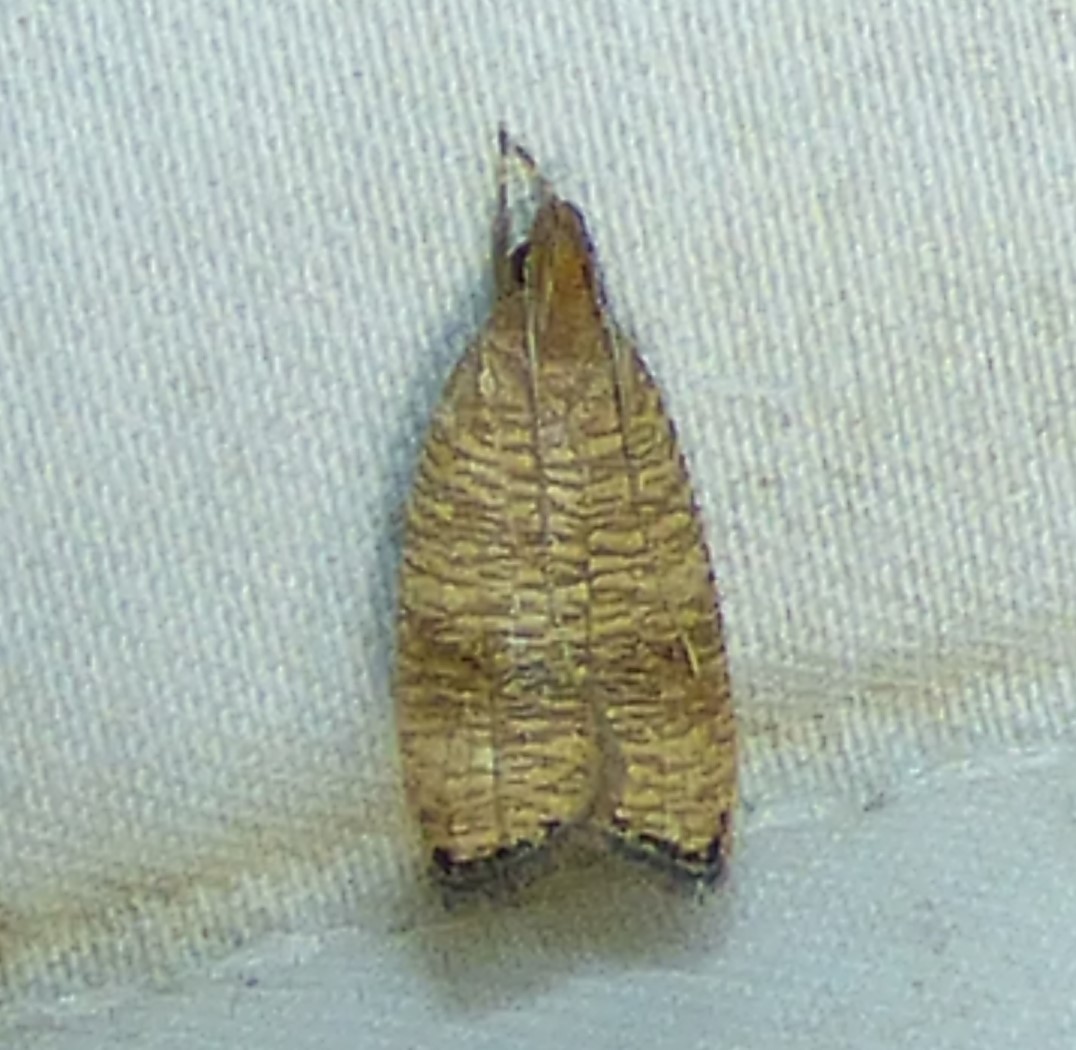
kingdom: Animalia
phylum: Arthropoda
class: Insecta
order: Lepidoptera
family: Depressariidae
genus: Psilocorsis
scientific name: Psilocorsis cryptolechiella
